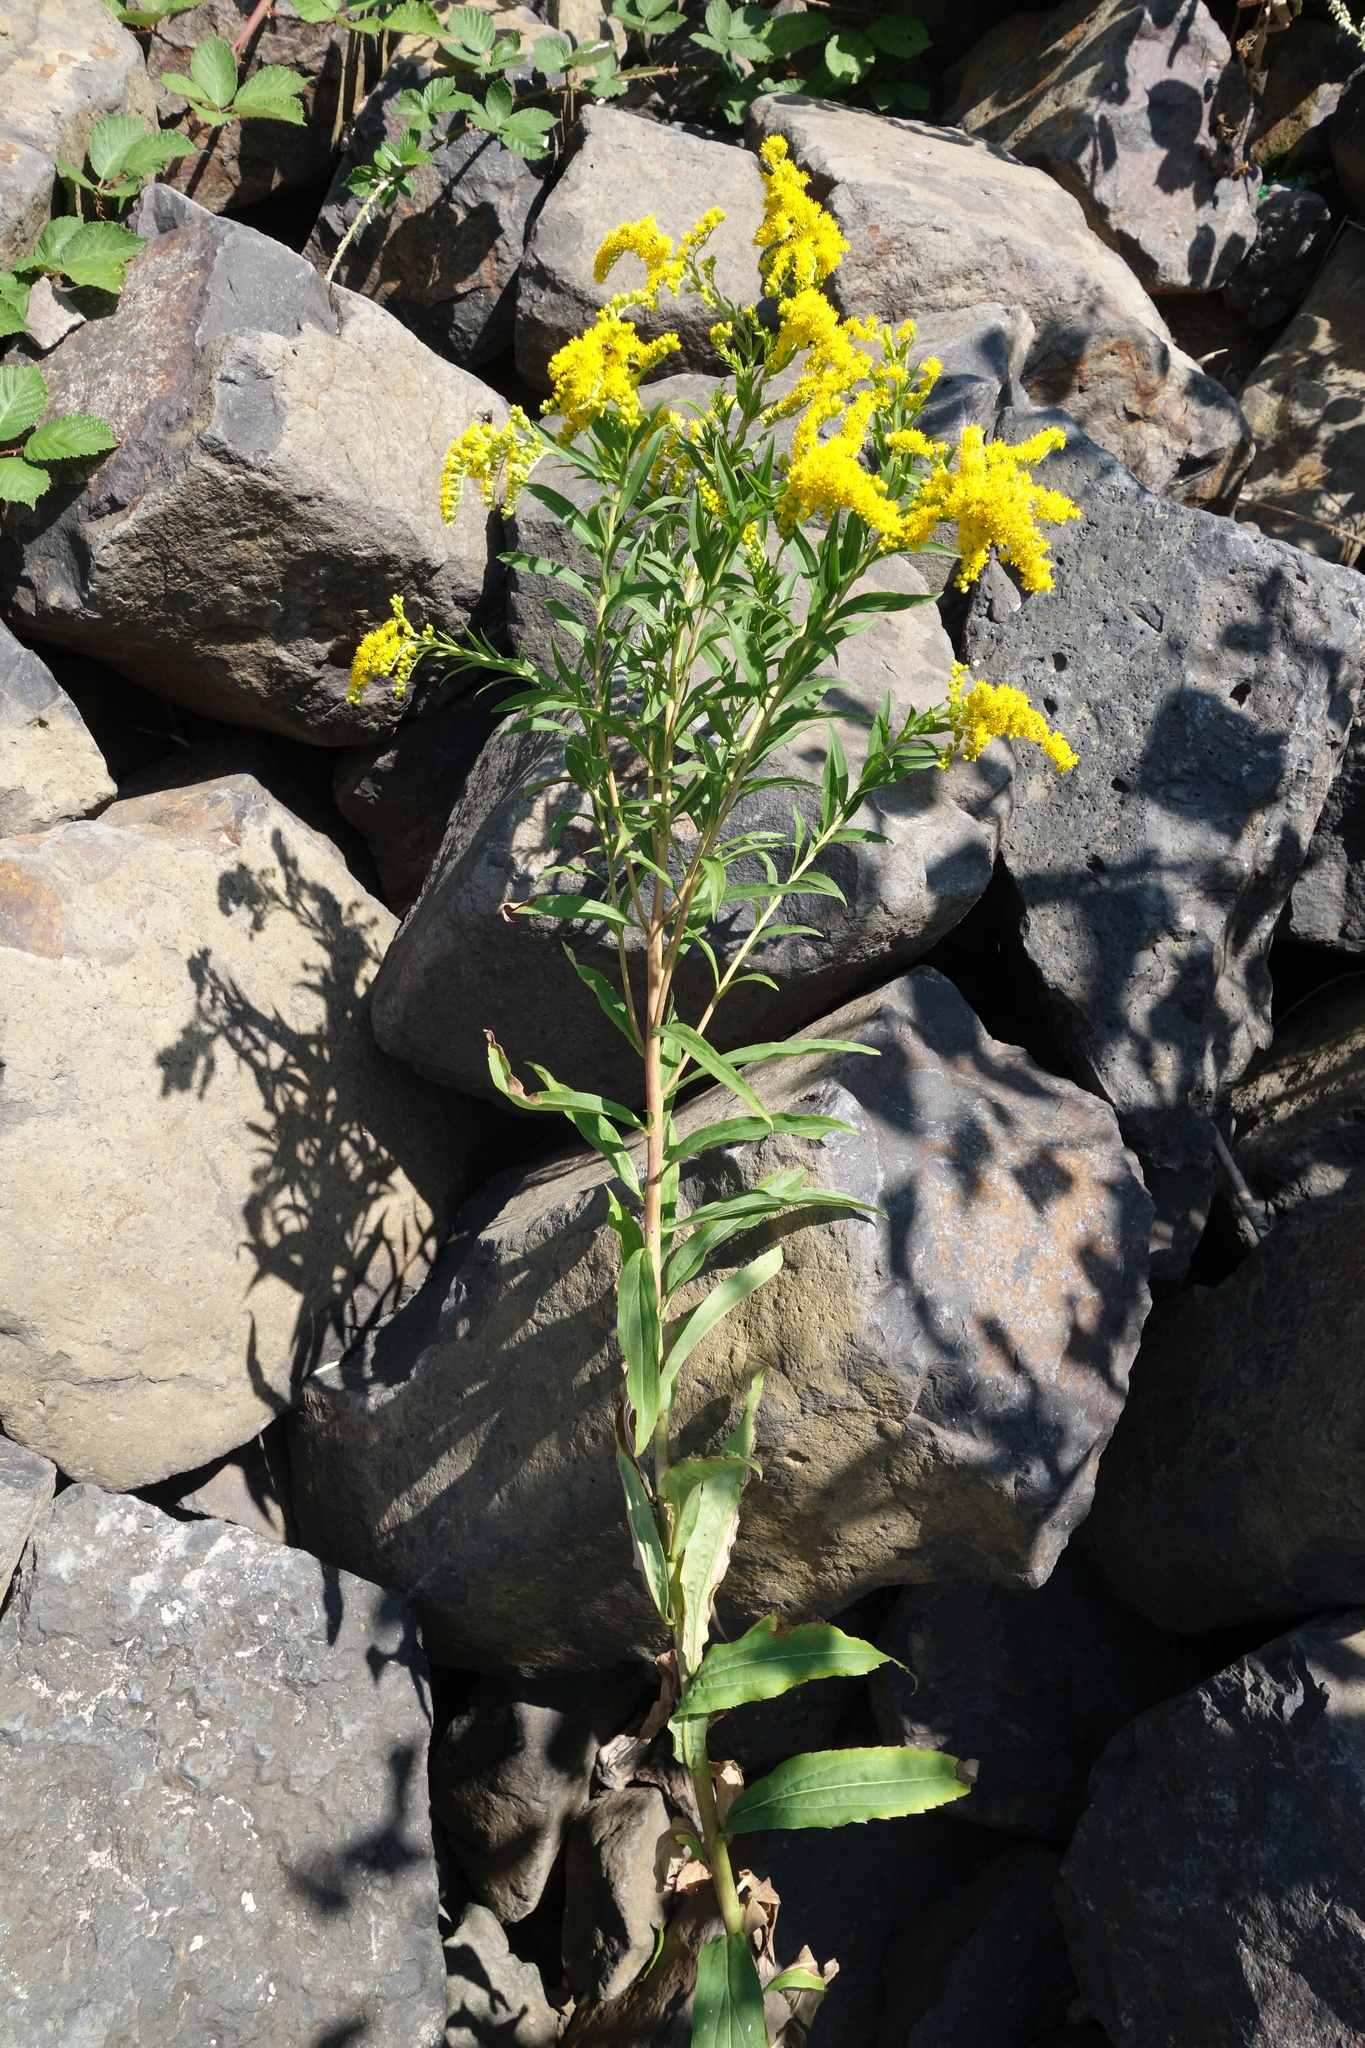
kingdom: Plantae
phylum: Tracheophyta
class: Magnoliopsida
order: Asterales
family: Asteraceae
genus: Solidago
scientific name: Solidago gigantea
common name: Giant goldenrod
